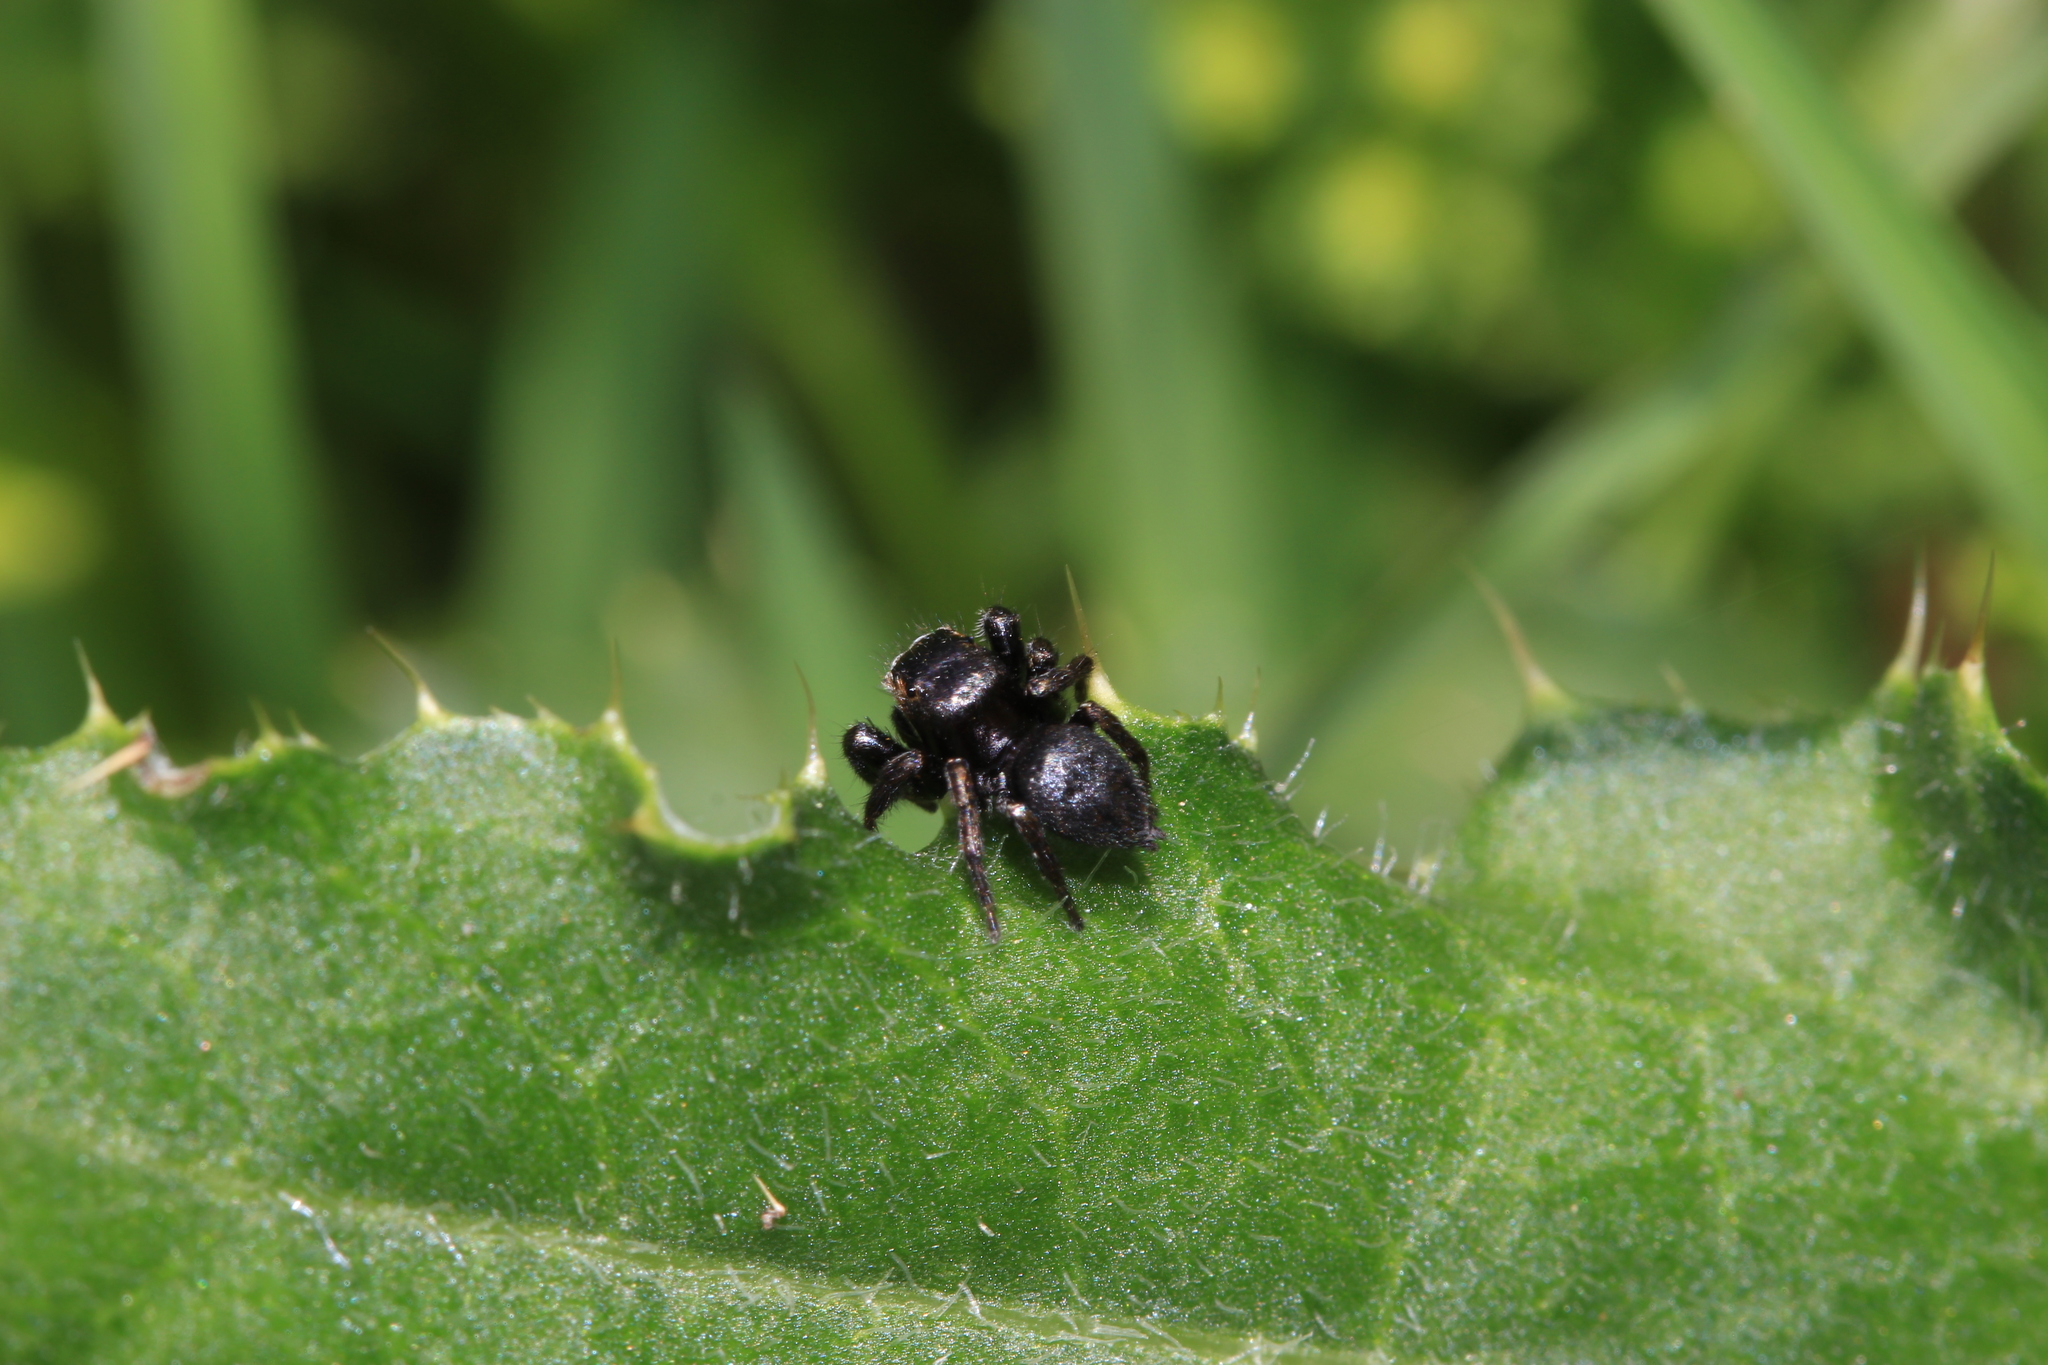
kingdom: Animalia
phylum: Arthropoda
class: Arachnida
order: Araneae
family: Salticidae
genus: Evarcha
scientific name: Evarcha arcuata
